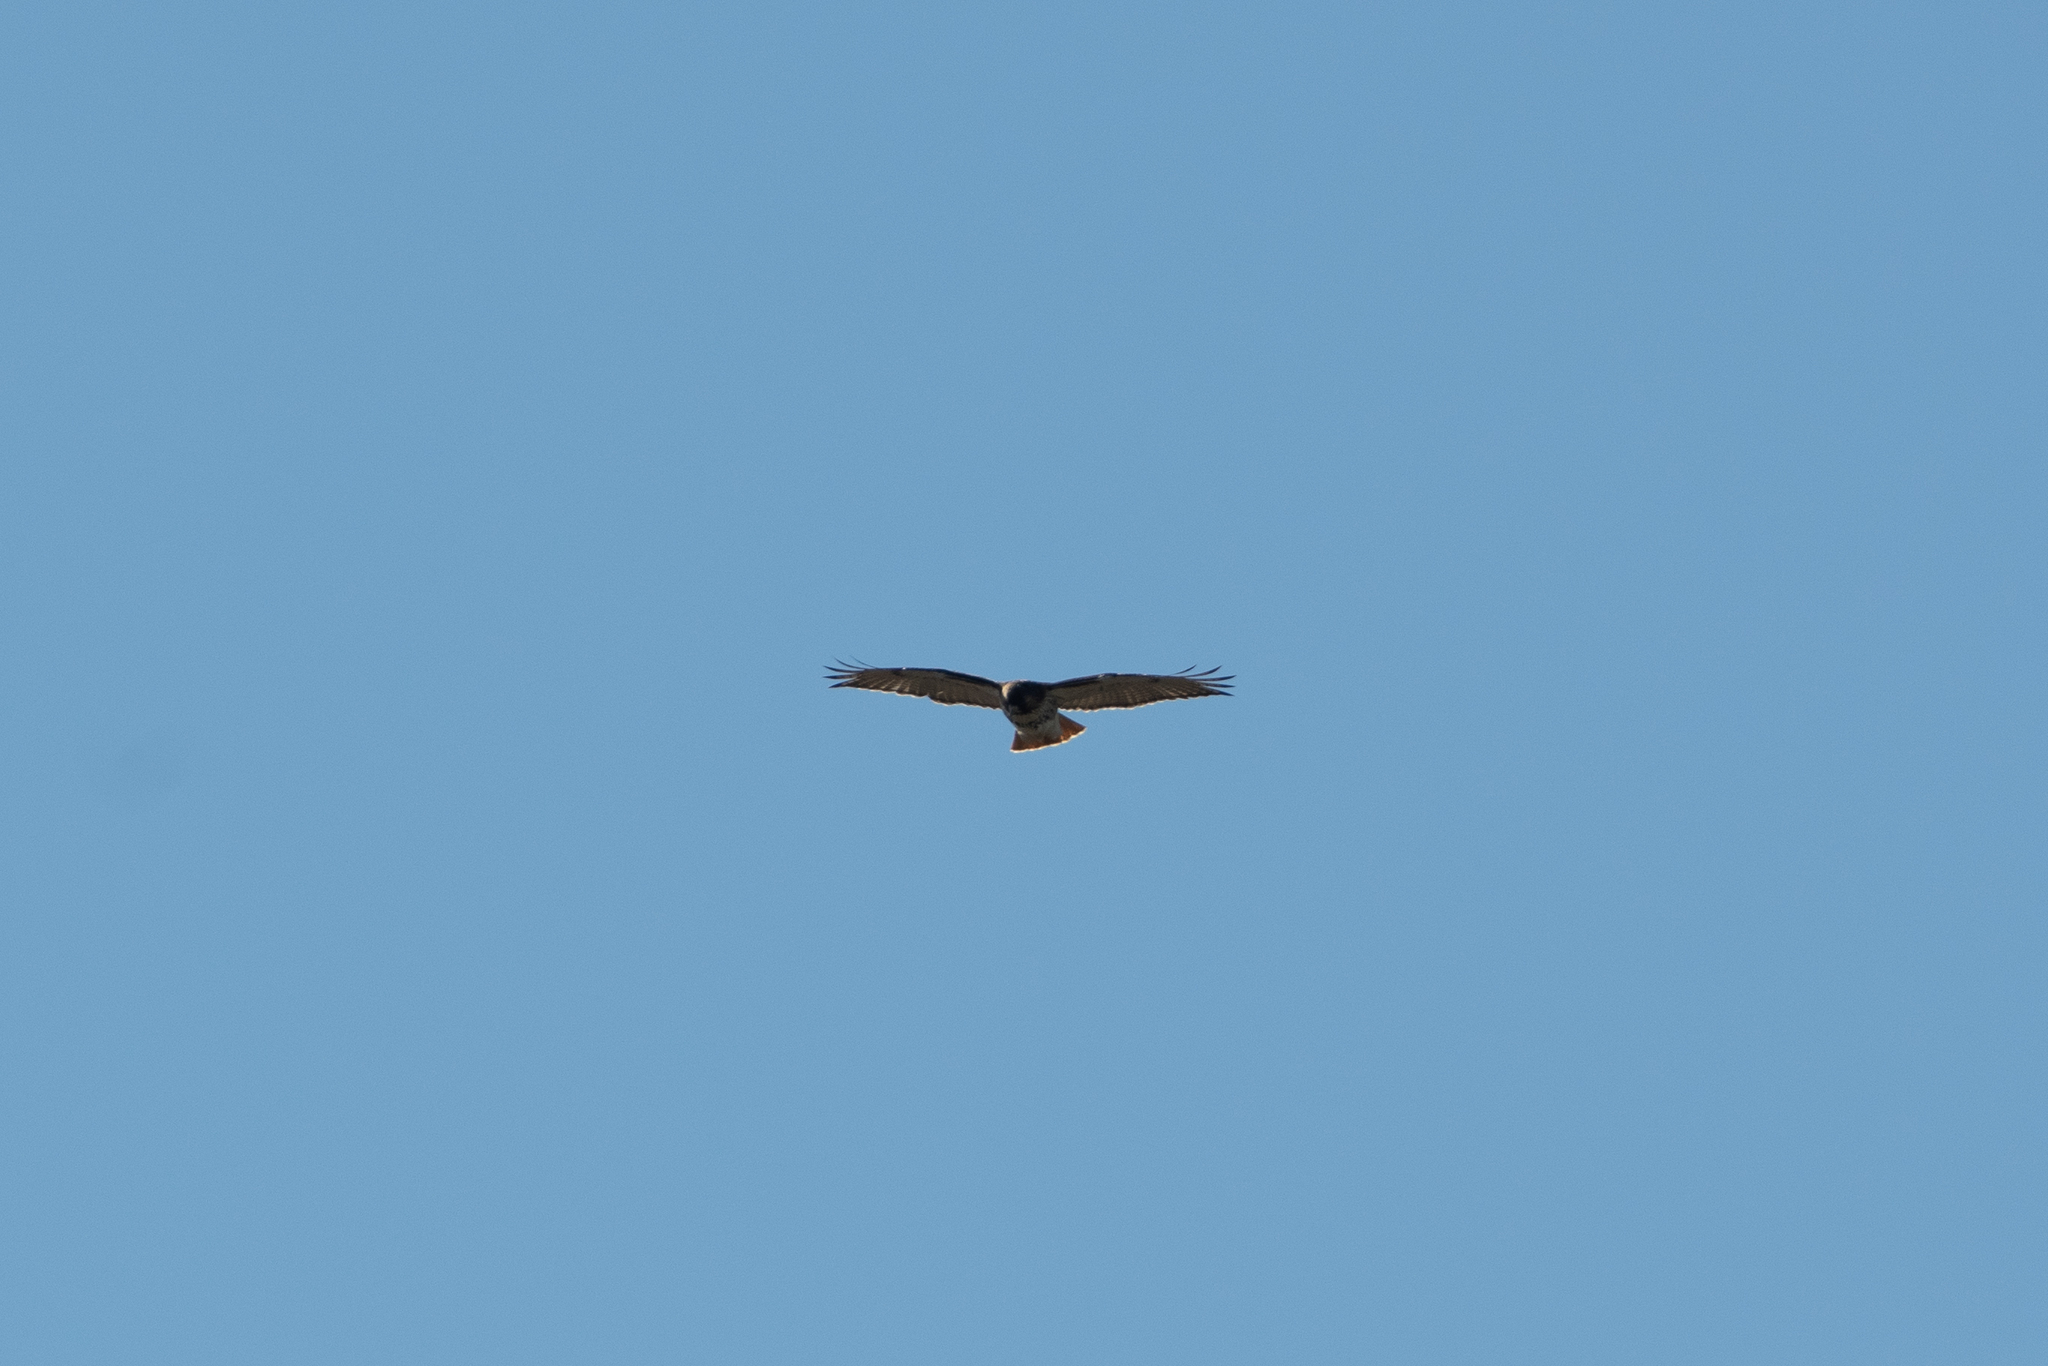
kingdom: Animalia
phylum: Chordata
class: Aves
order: Accipitriformes
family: Accipitridae
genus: Buteo
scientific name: Buteo jamaicensis
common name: Red-tailed hawk
